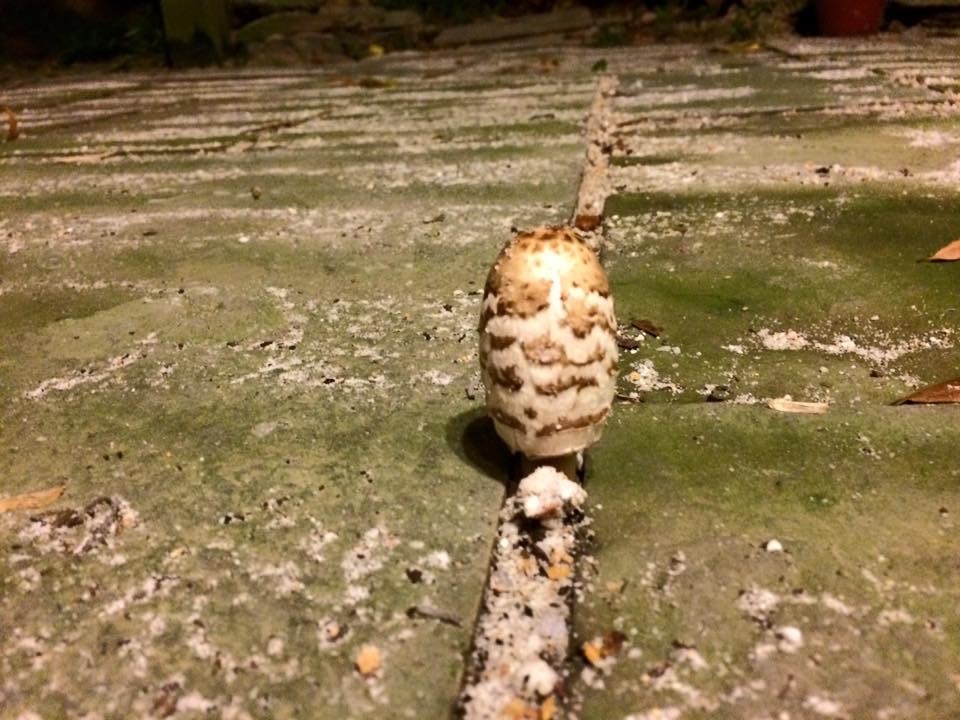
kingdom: Fungi
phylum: Basidiomycota
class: Agaricomycetes
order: Agaricales
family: Agaricaceae
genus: Coprinus
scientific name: Coprinus comatus
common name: Lawyer's wig
